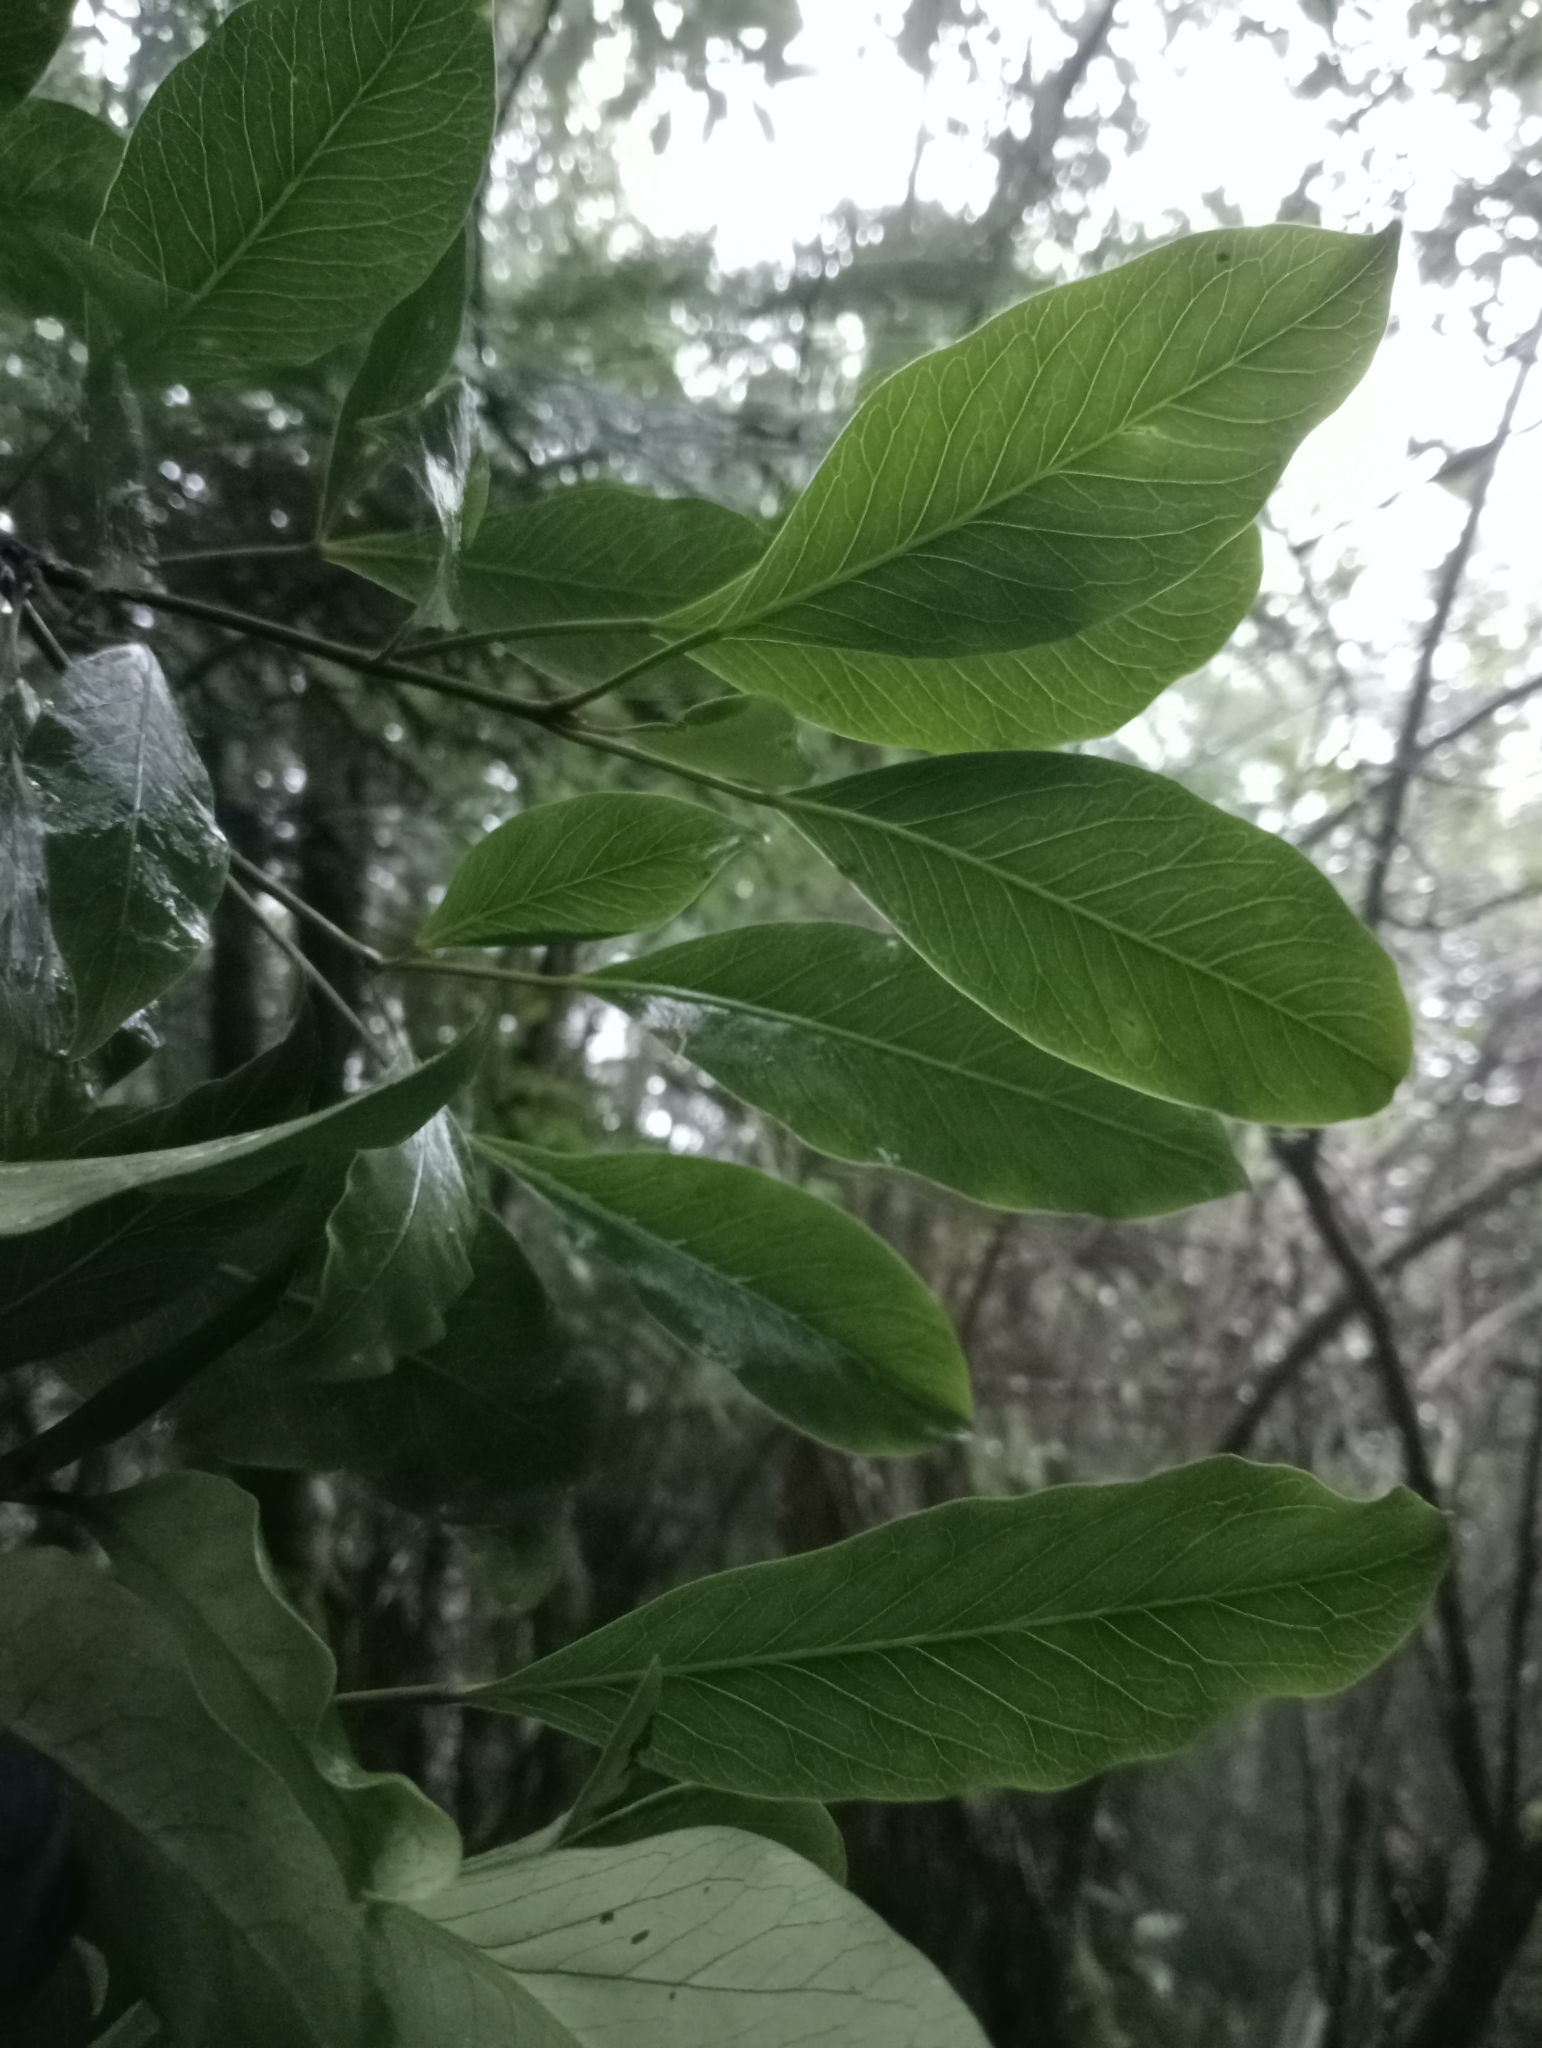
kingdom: Plantae
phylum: Tracheophyta
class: Magnoliopsida
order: Apiales
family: Araliaceae
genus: Raukaua
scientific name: Raukaua edgerleyi
